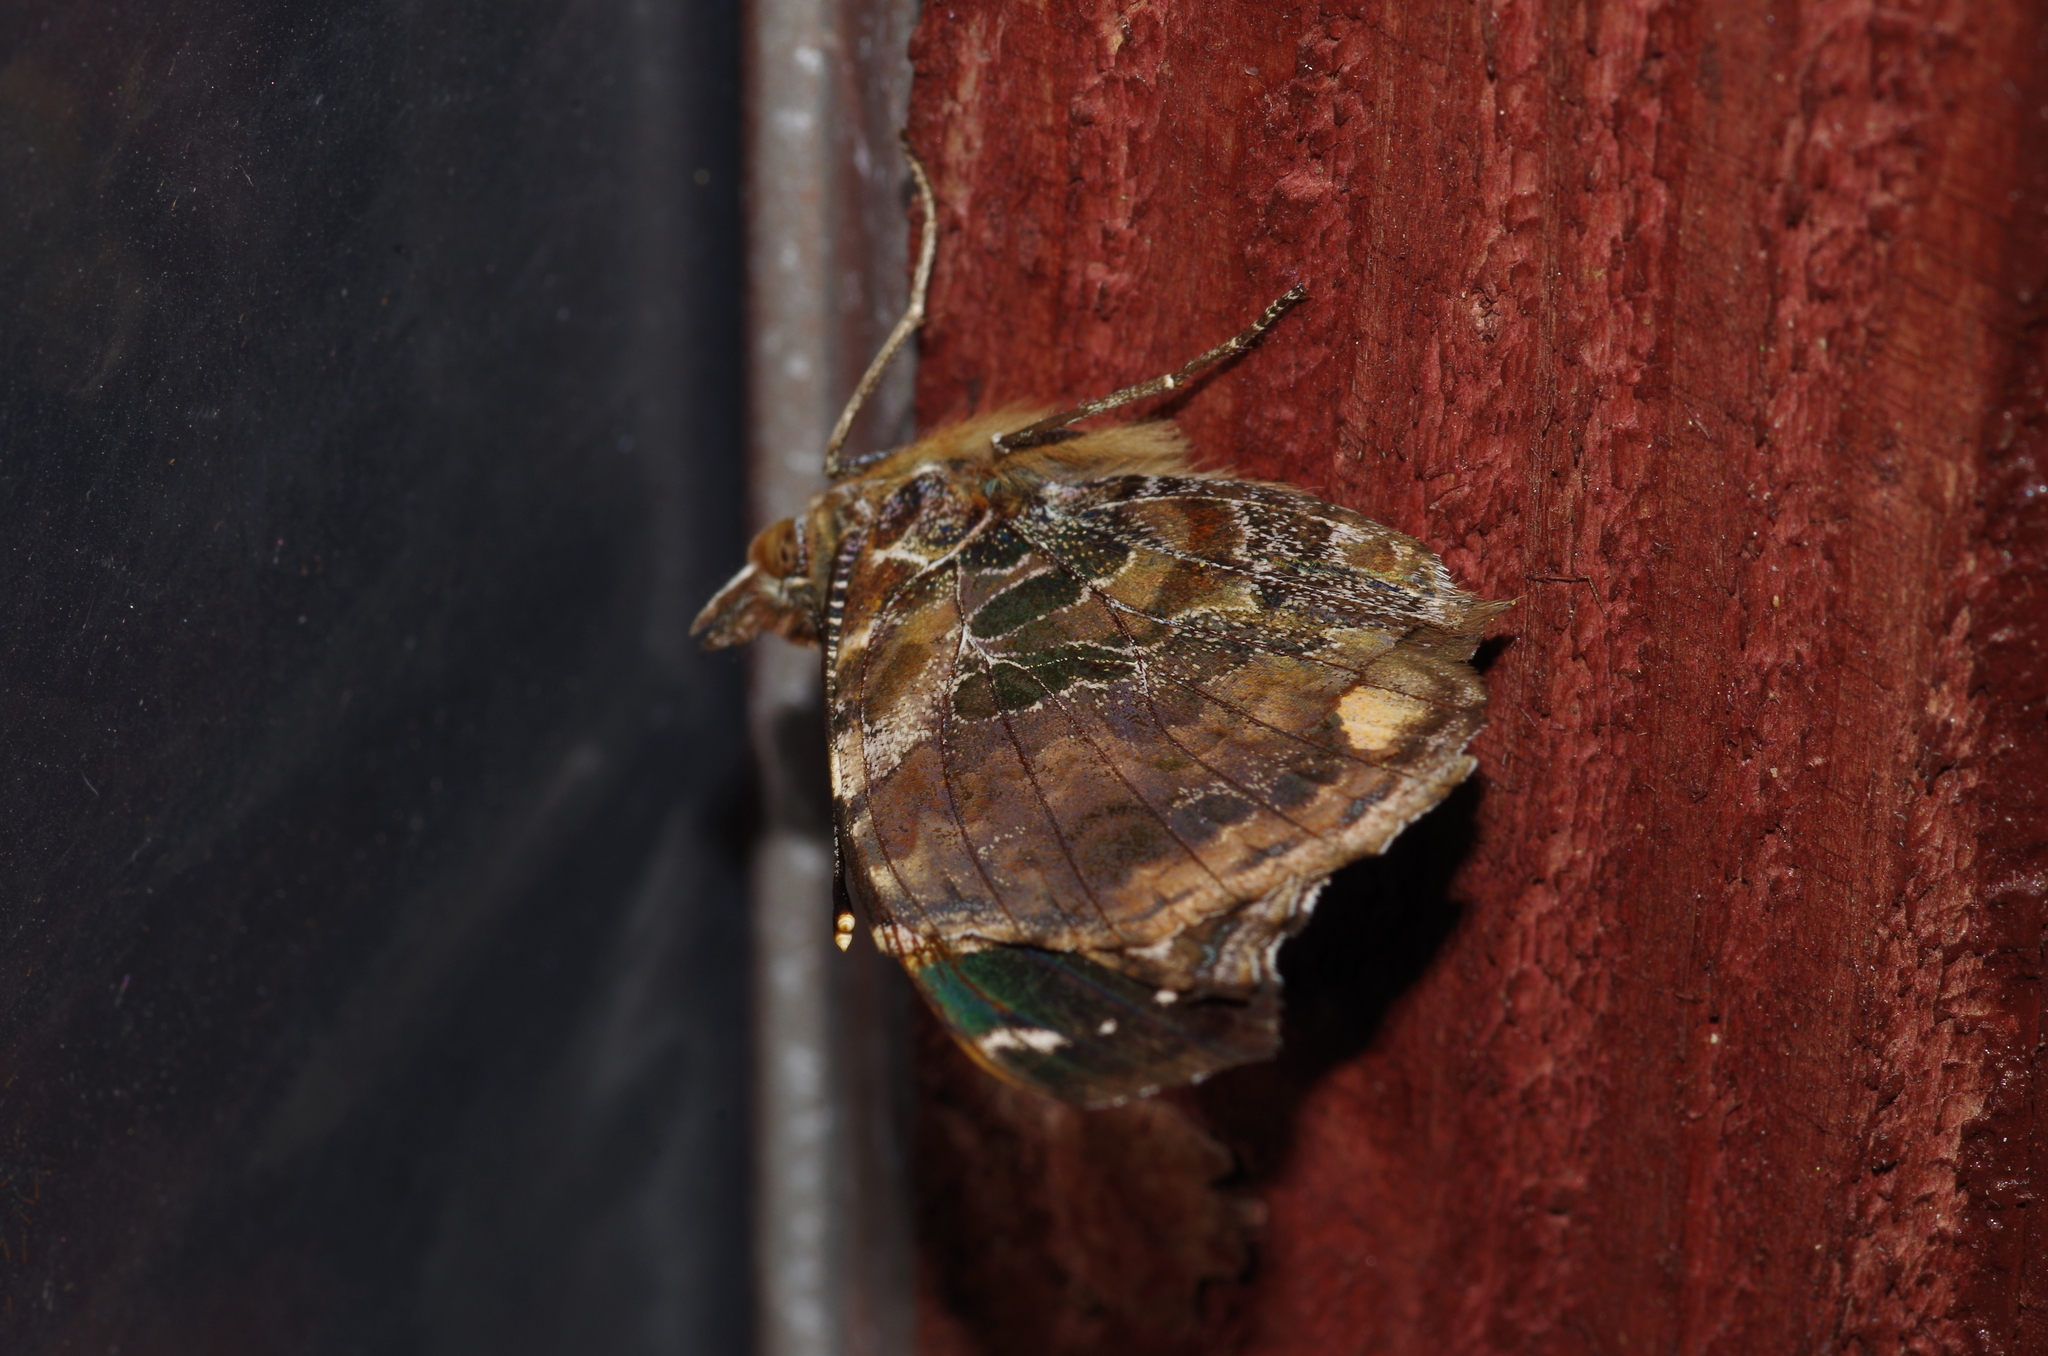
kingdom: Animalia
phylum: Arthropoda
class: Insecta
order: Lepidoptera
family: Nymphalidae
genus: Vanessa
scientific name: Vanessa indica
